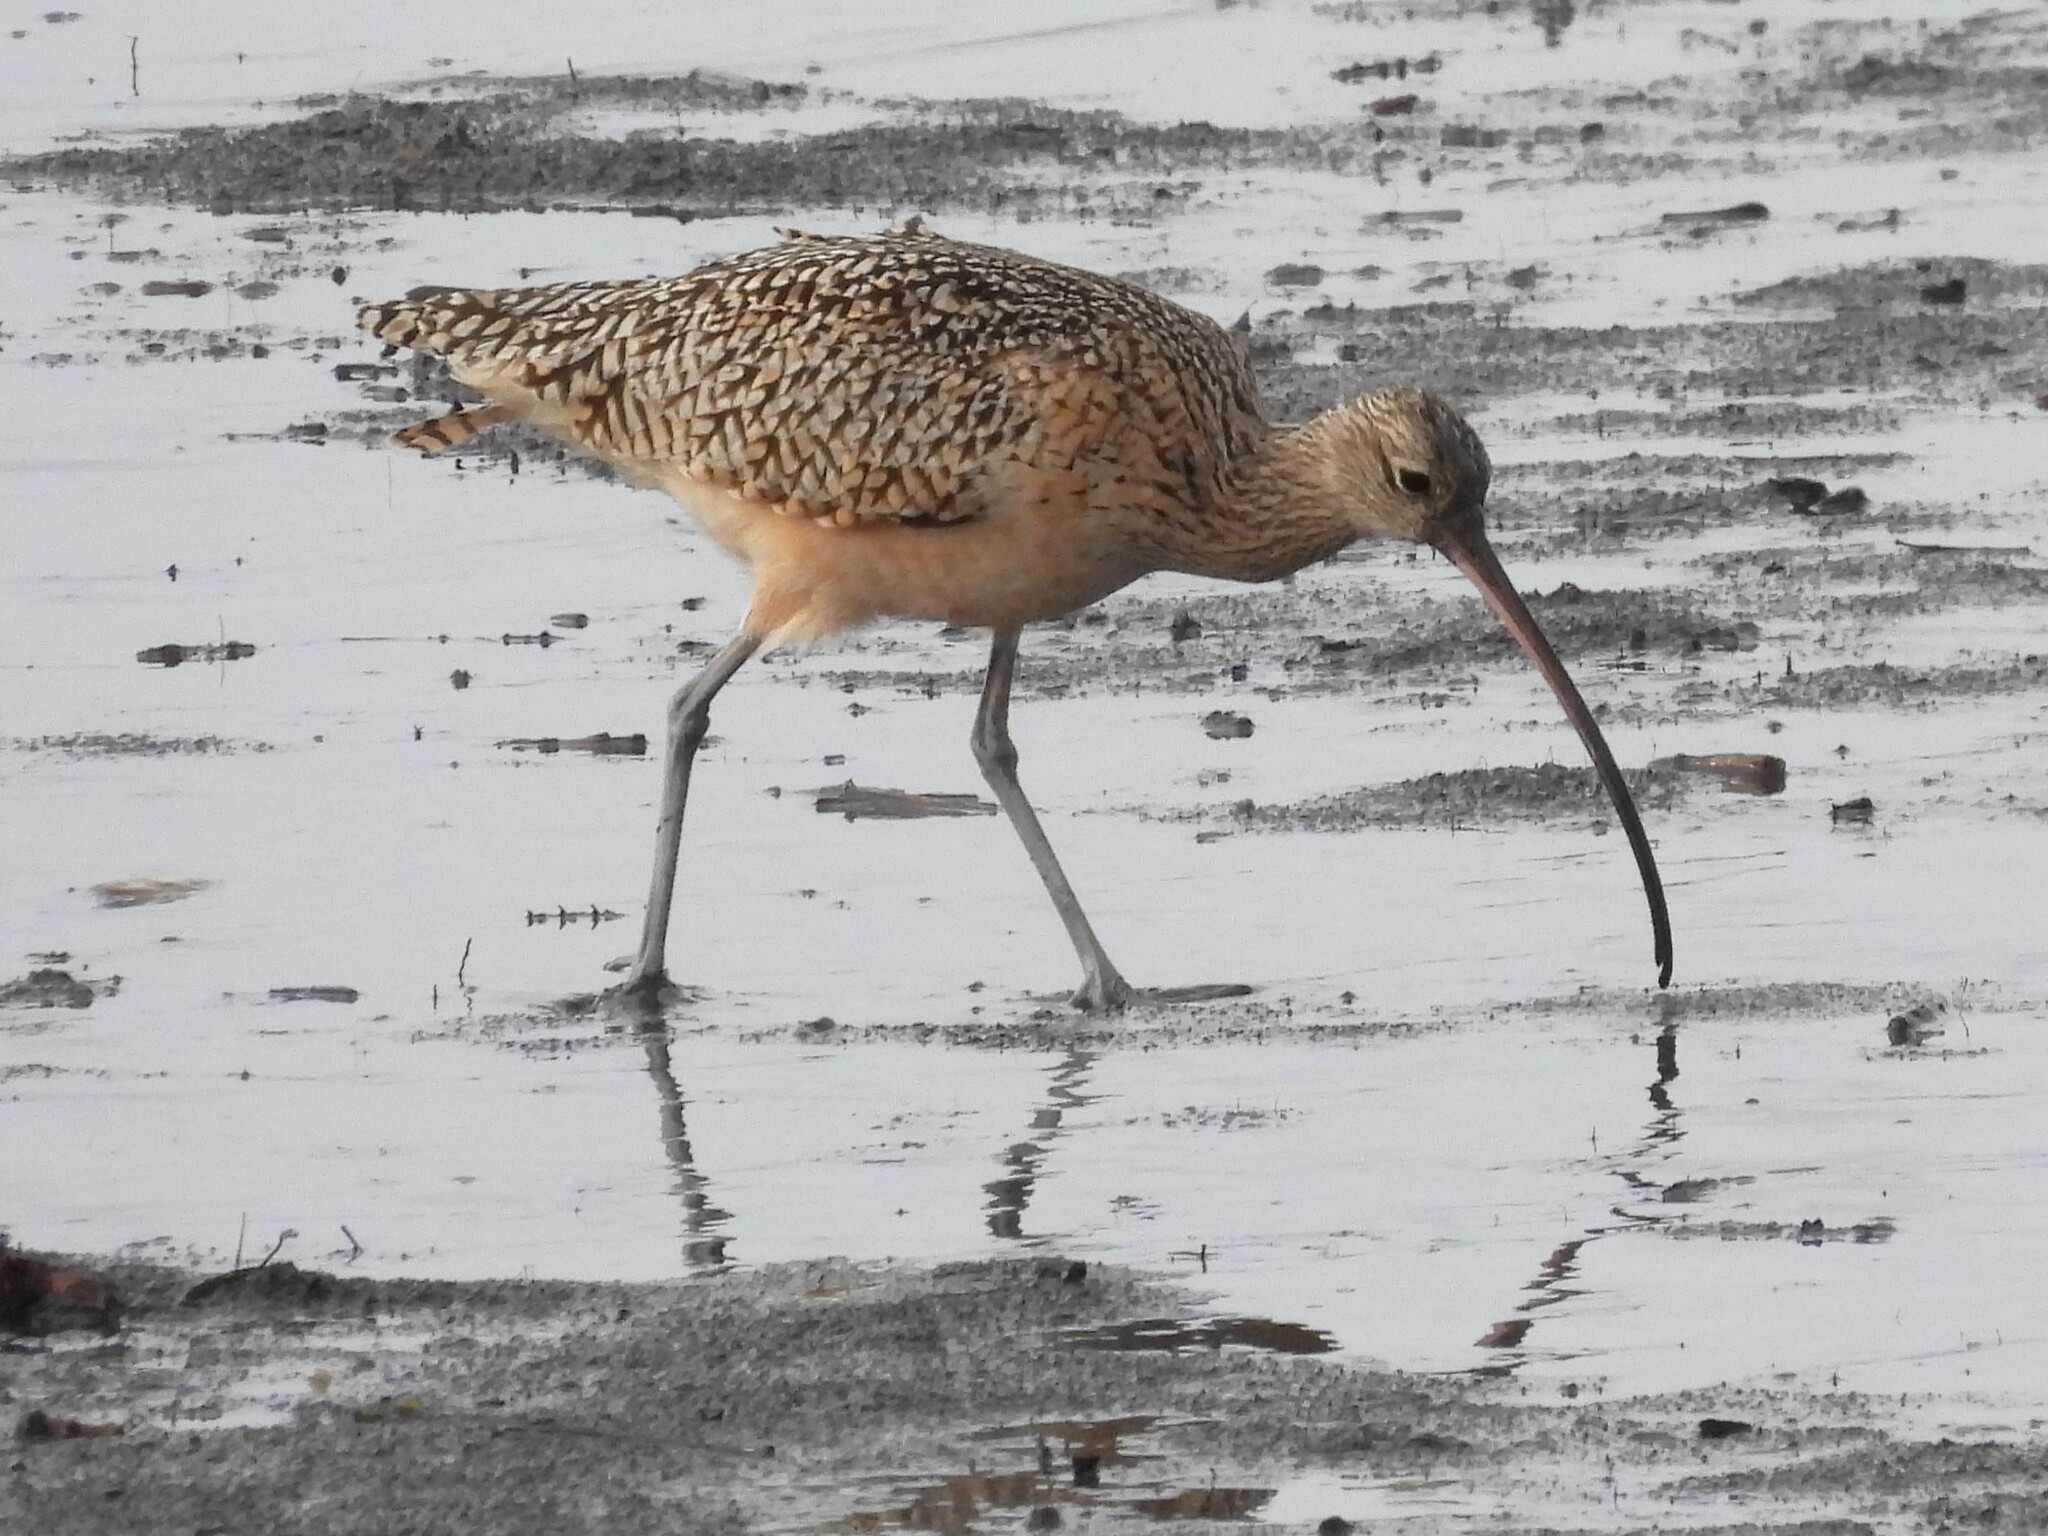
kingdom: Animalia
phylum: Chordata
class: Aves
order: Charadriiformes
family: Scolopacidae
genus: Numenius
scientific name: Numenius americanus
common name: Long-billed curlew
